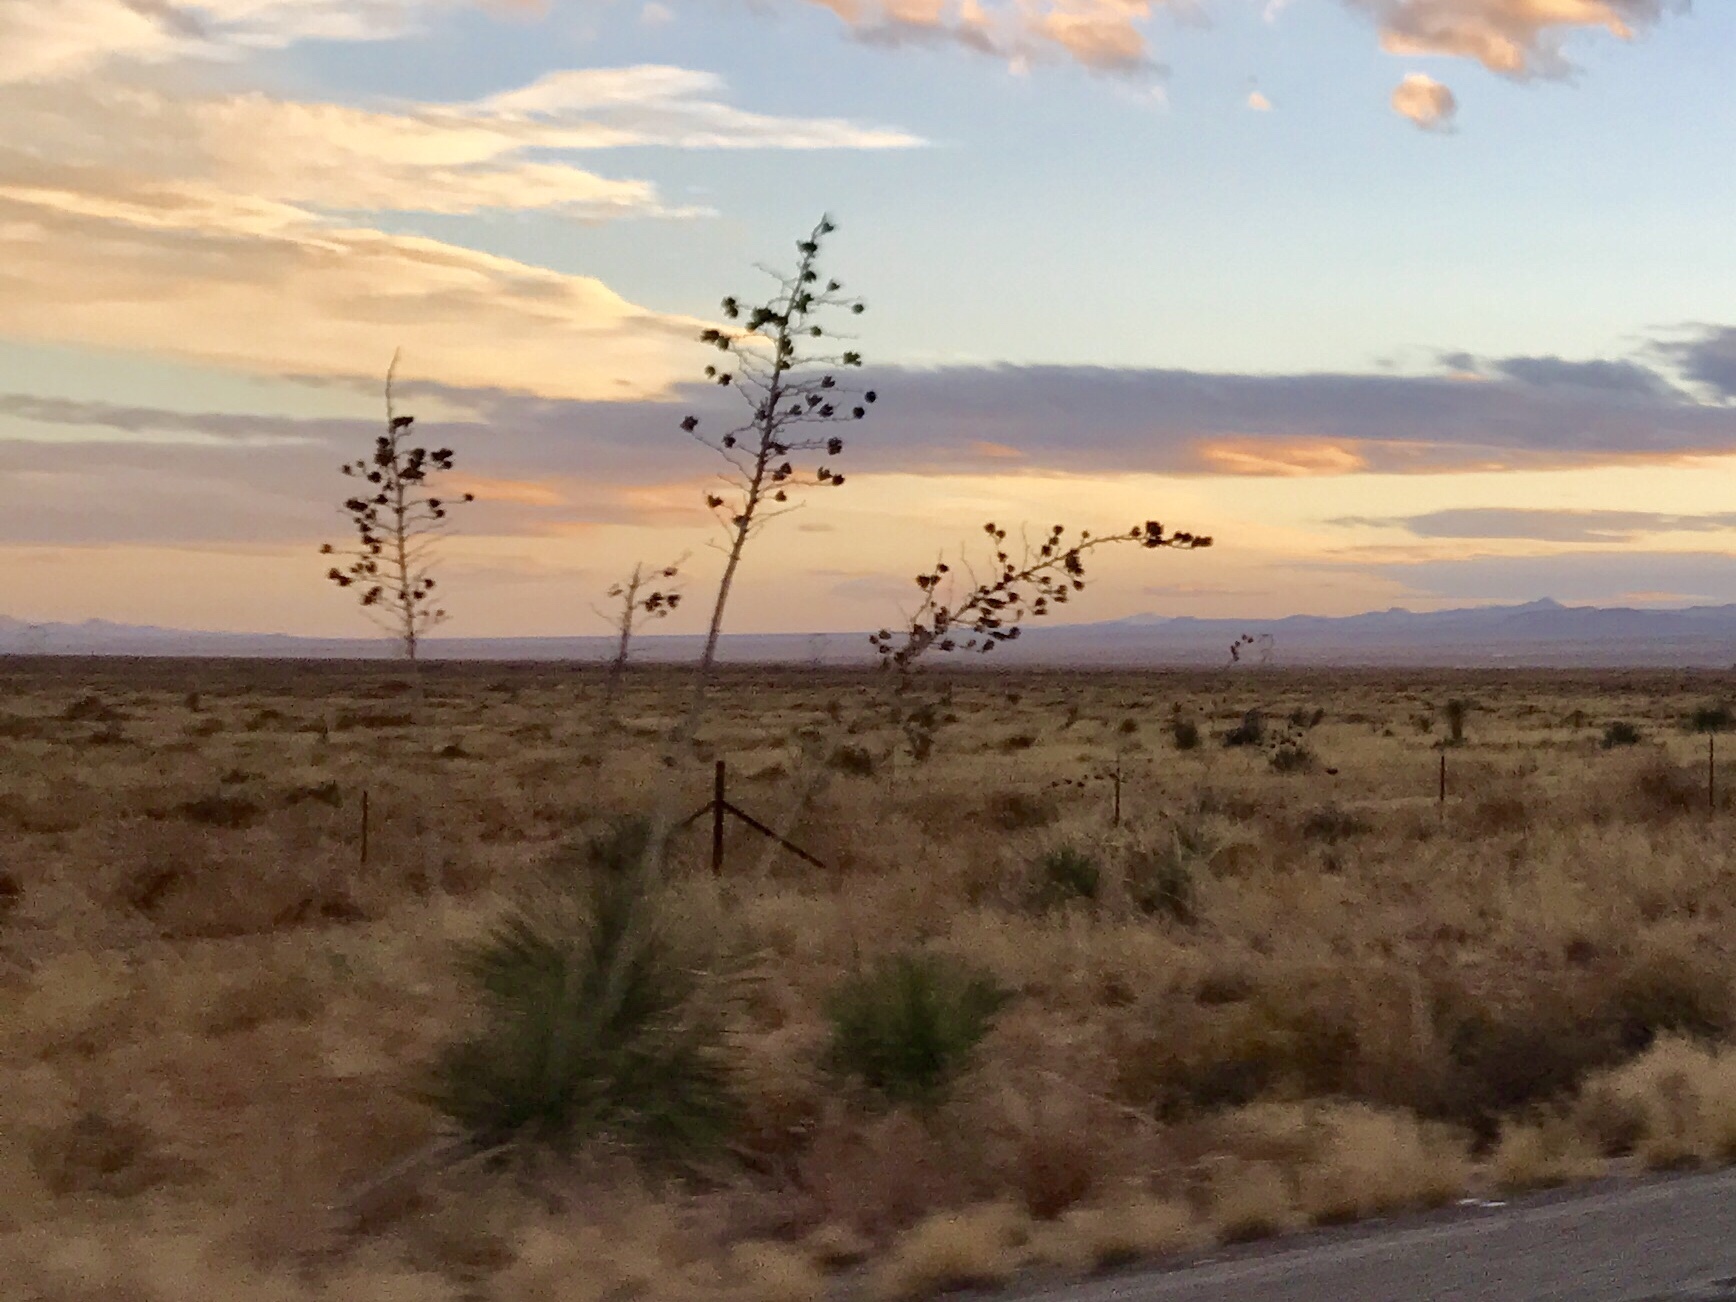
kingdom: Plantae
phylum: Tracheophyta
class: Liliopsida
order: Asparagales
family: Asparagaceae
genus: Yucca
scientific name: Yucca elata
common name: Palmella
